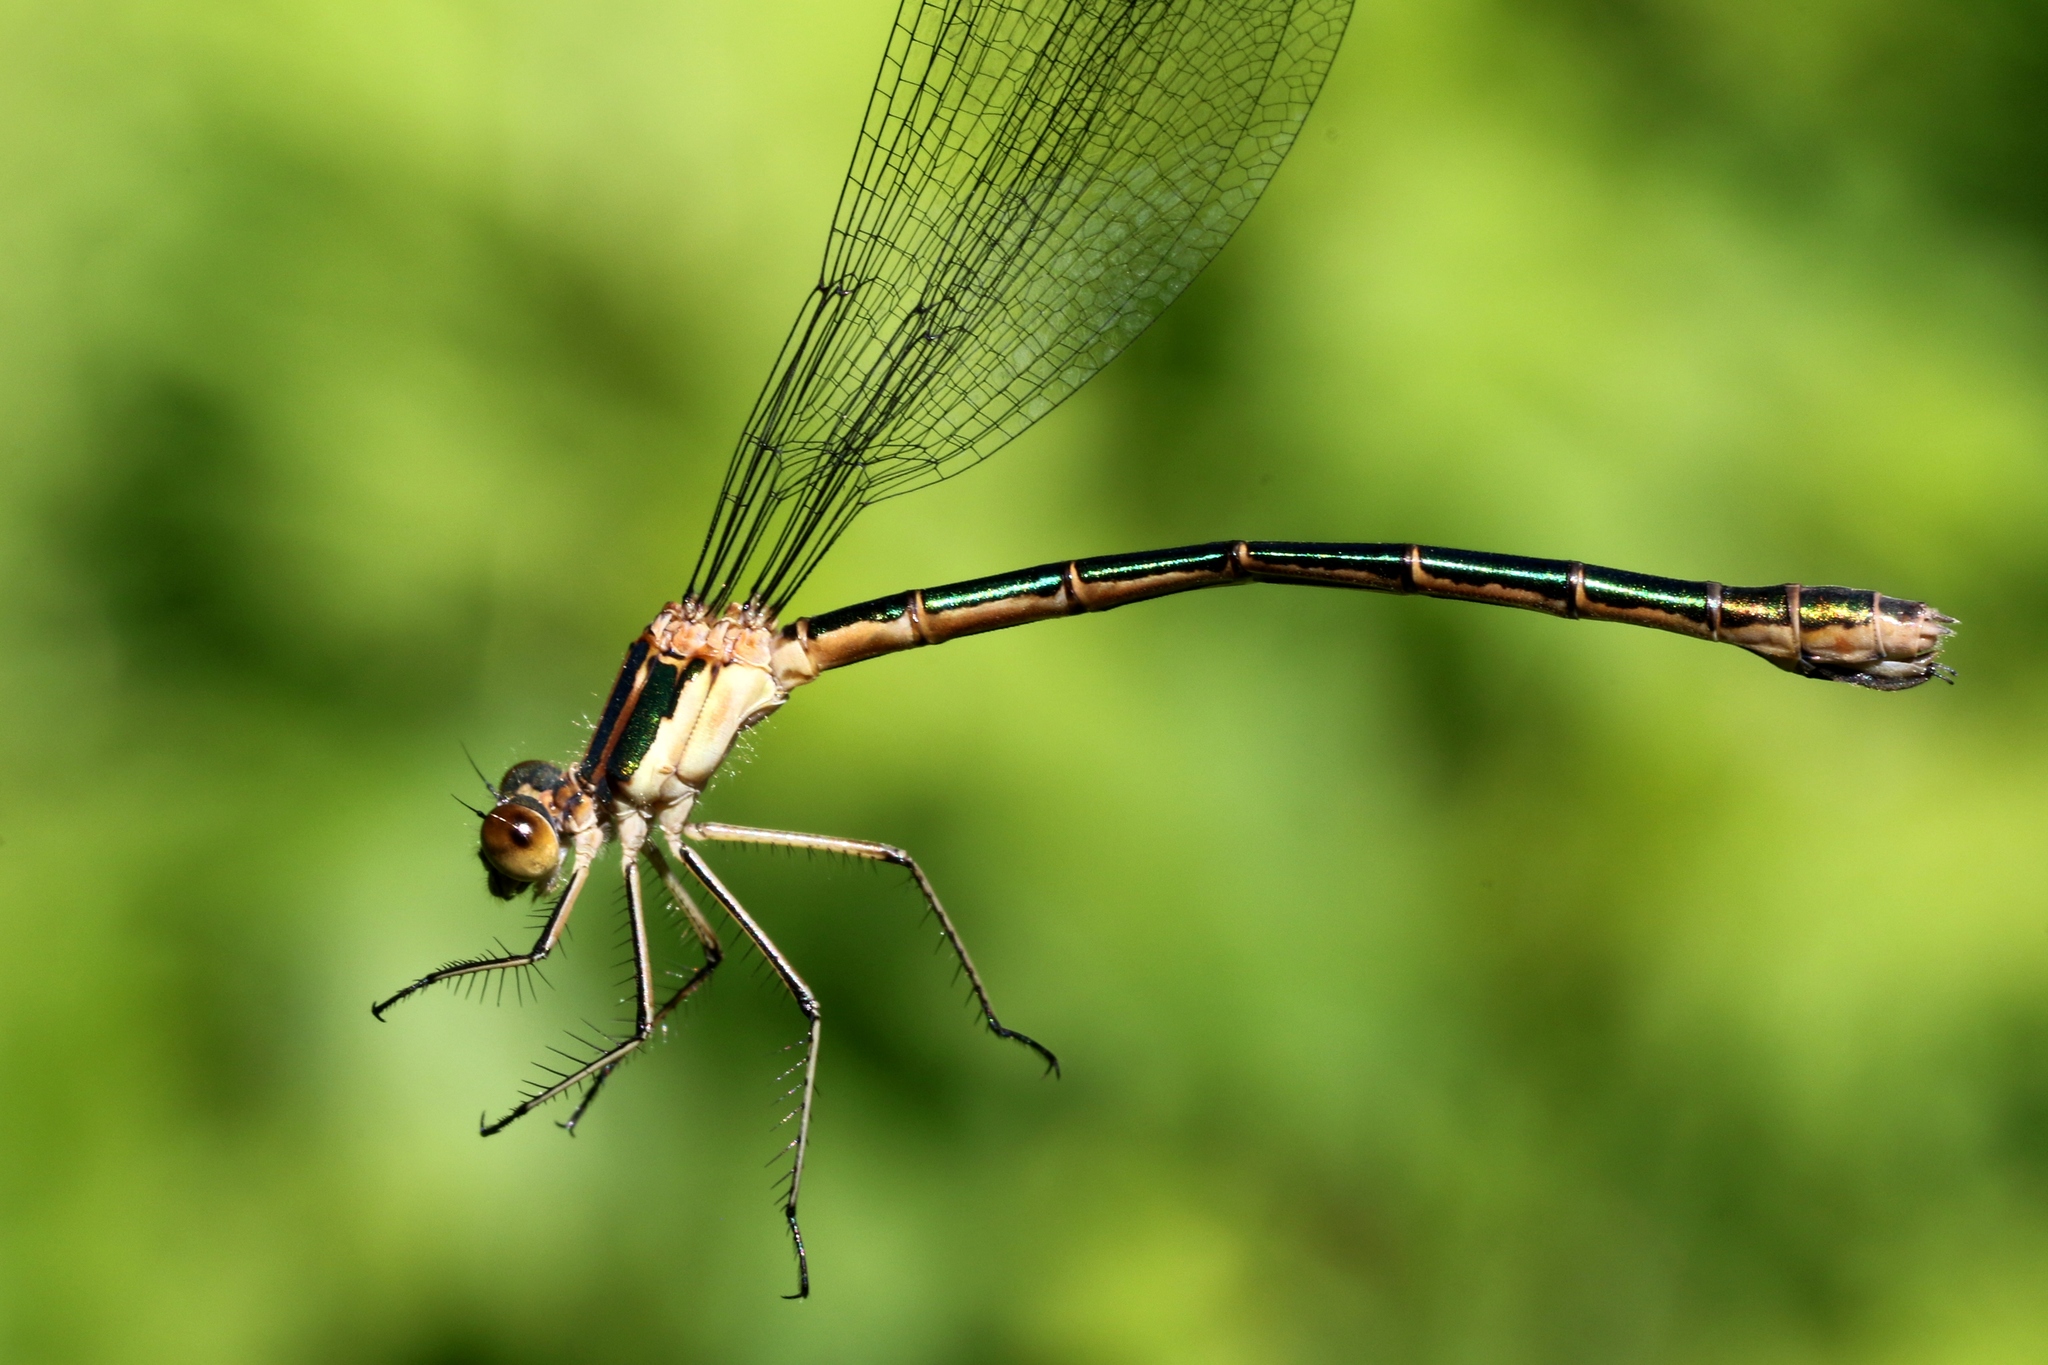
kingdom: Animalia
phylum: Arthropoda
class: Insecta
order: Odonata
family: Lestidae
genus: Lestes
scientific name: Lestes dryas
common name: Scarce emerald damselfly
